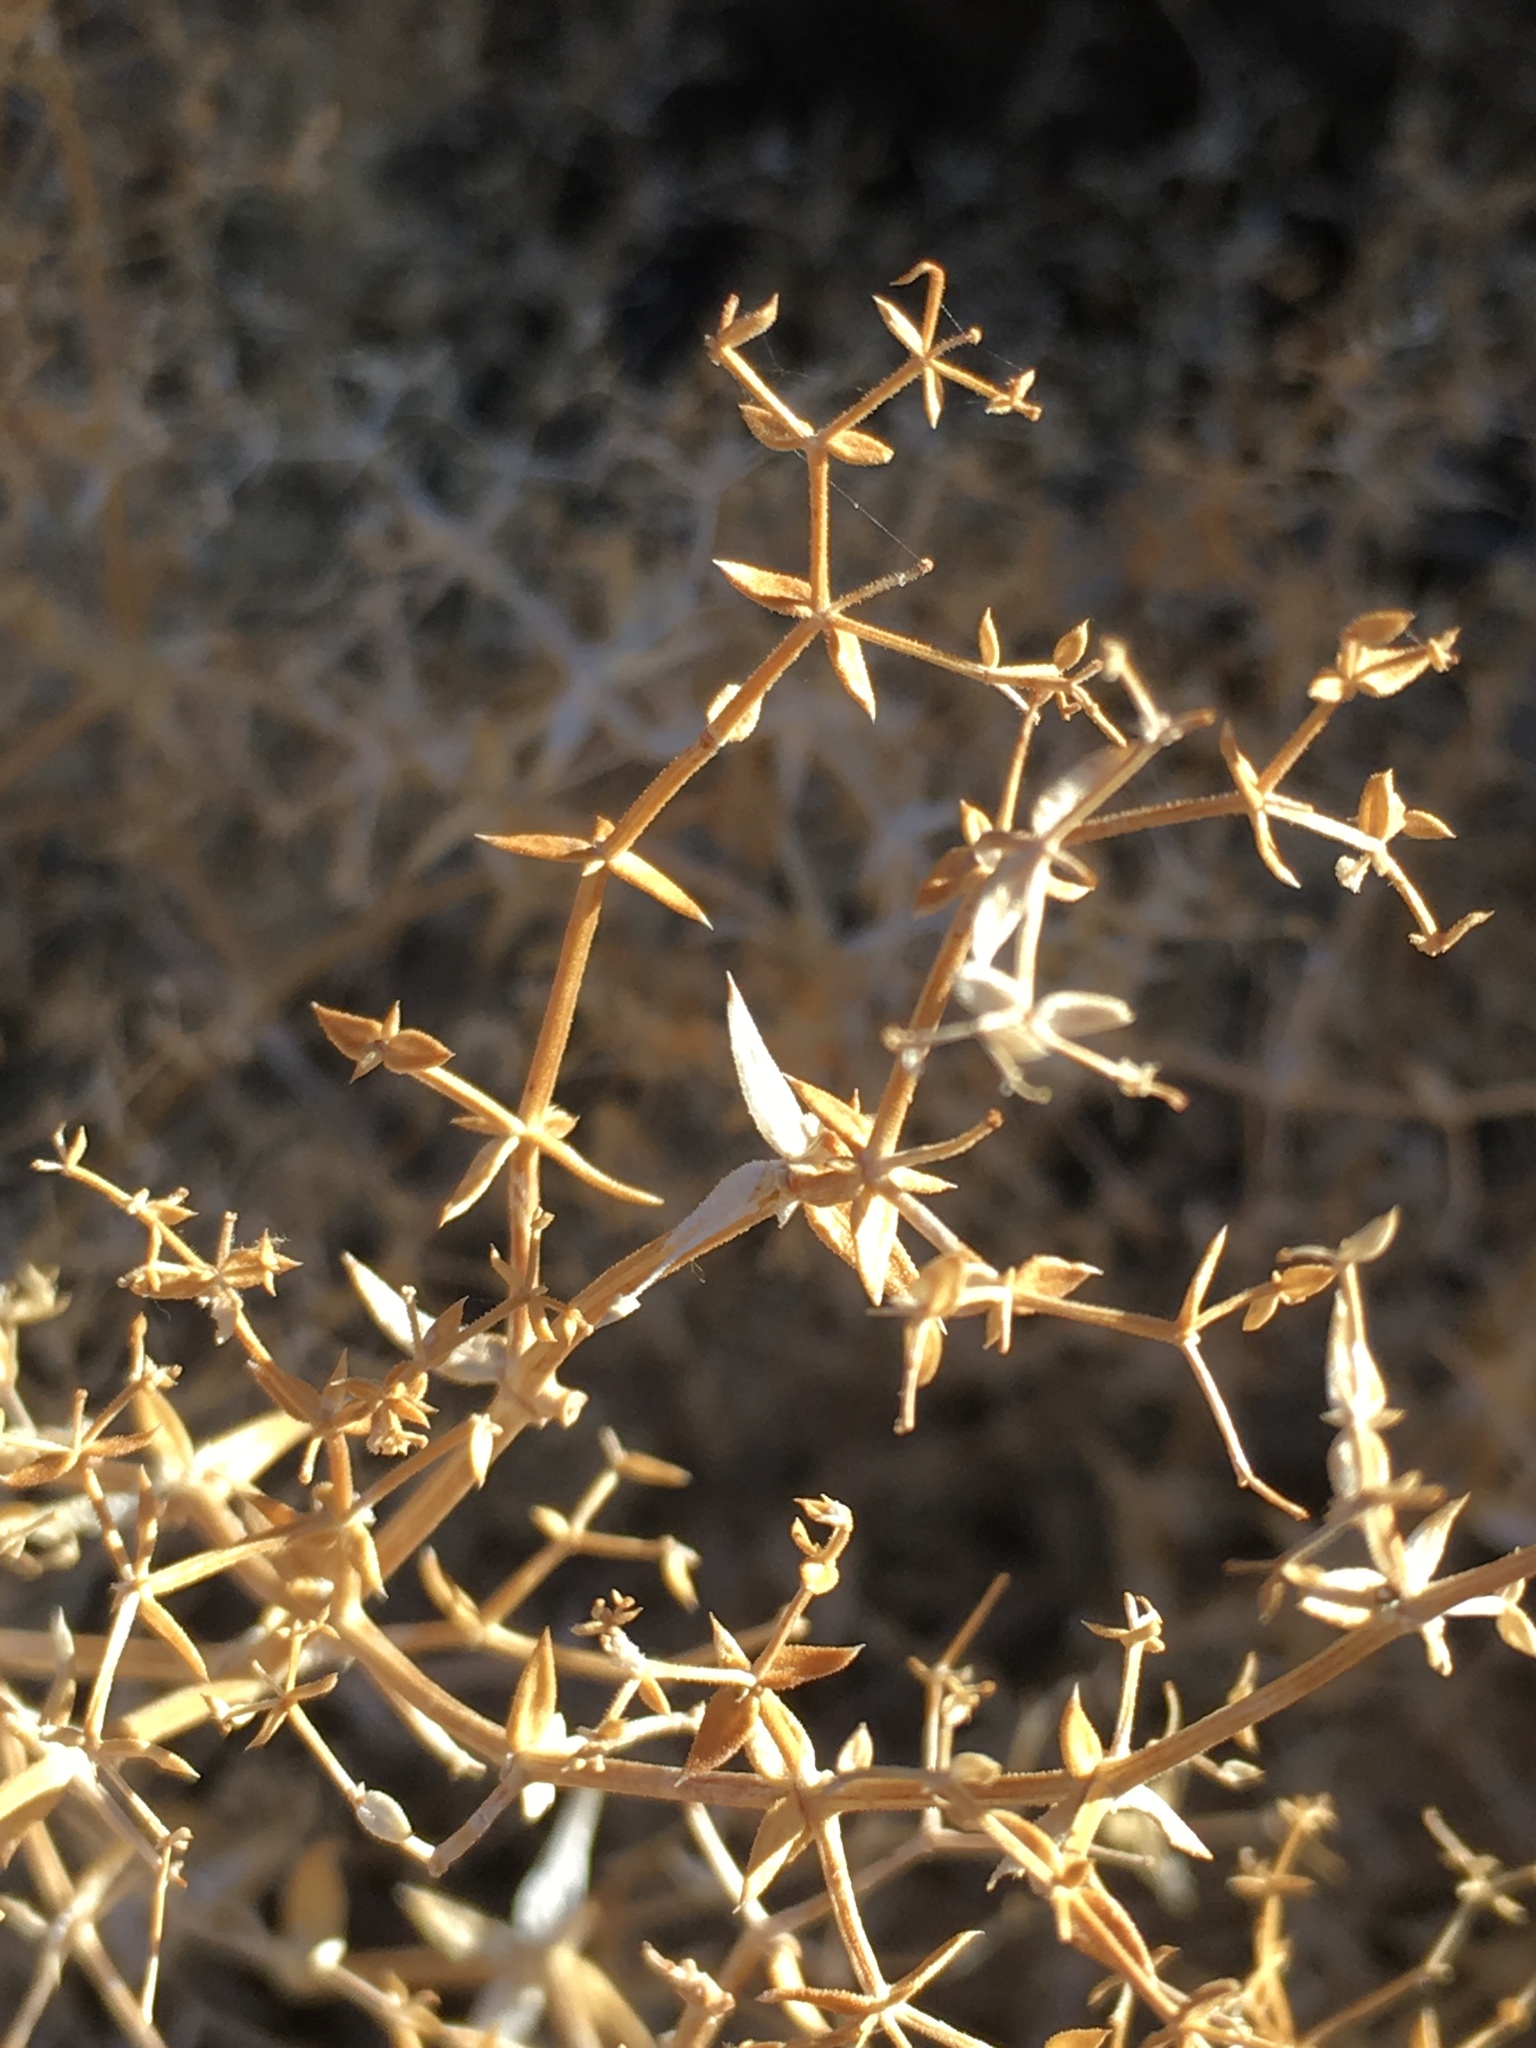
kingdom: Plantae
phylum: Tracheophyta
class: Magnoliopsida
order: Gentianales
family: Rubiaceae
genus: Galium
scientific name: Galium stellatum
